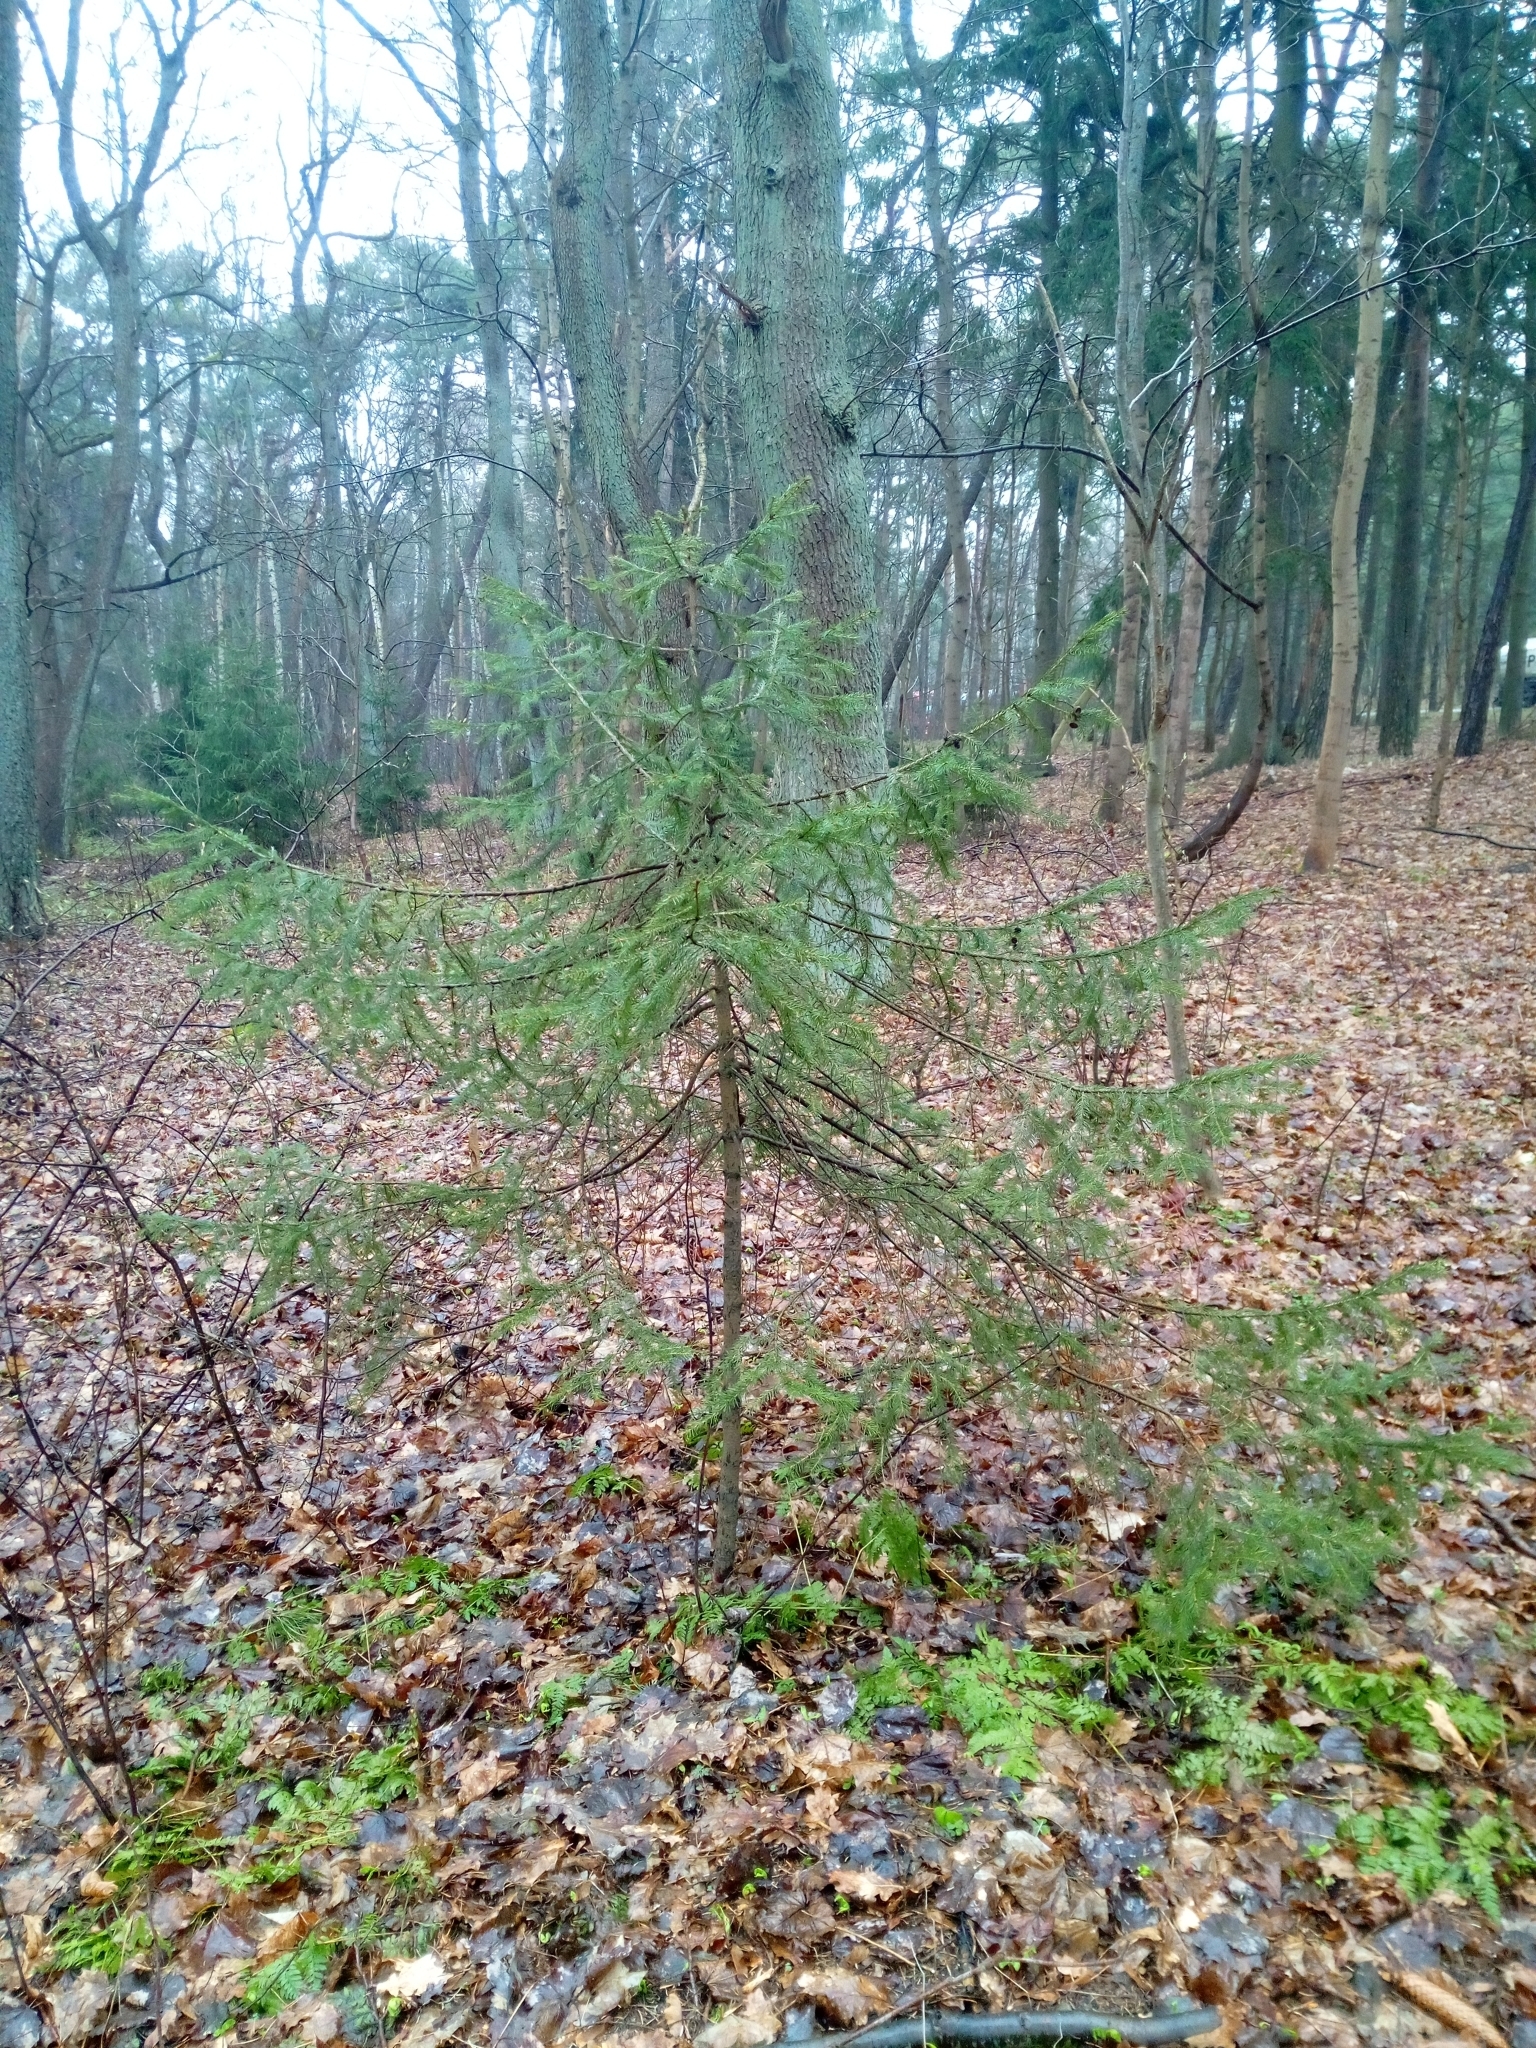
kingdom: Plantae
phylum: Tracheophyta
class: Pinopsida
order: Pinales
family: Pinaceae
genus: Picea
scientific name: Picea abies
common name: Norway spruce
